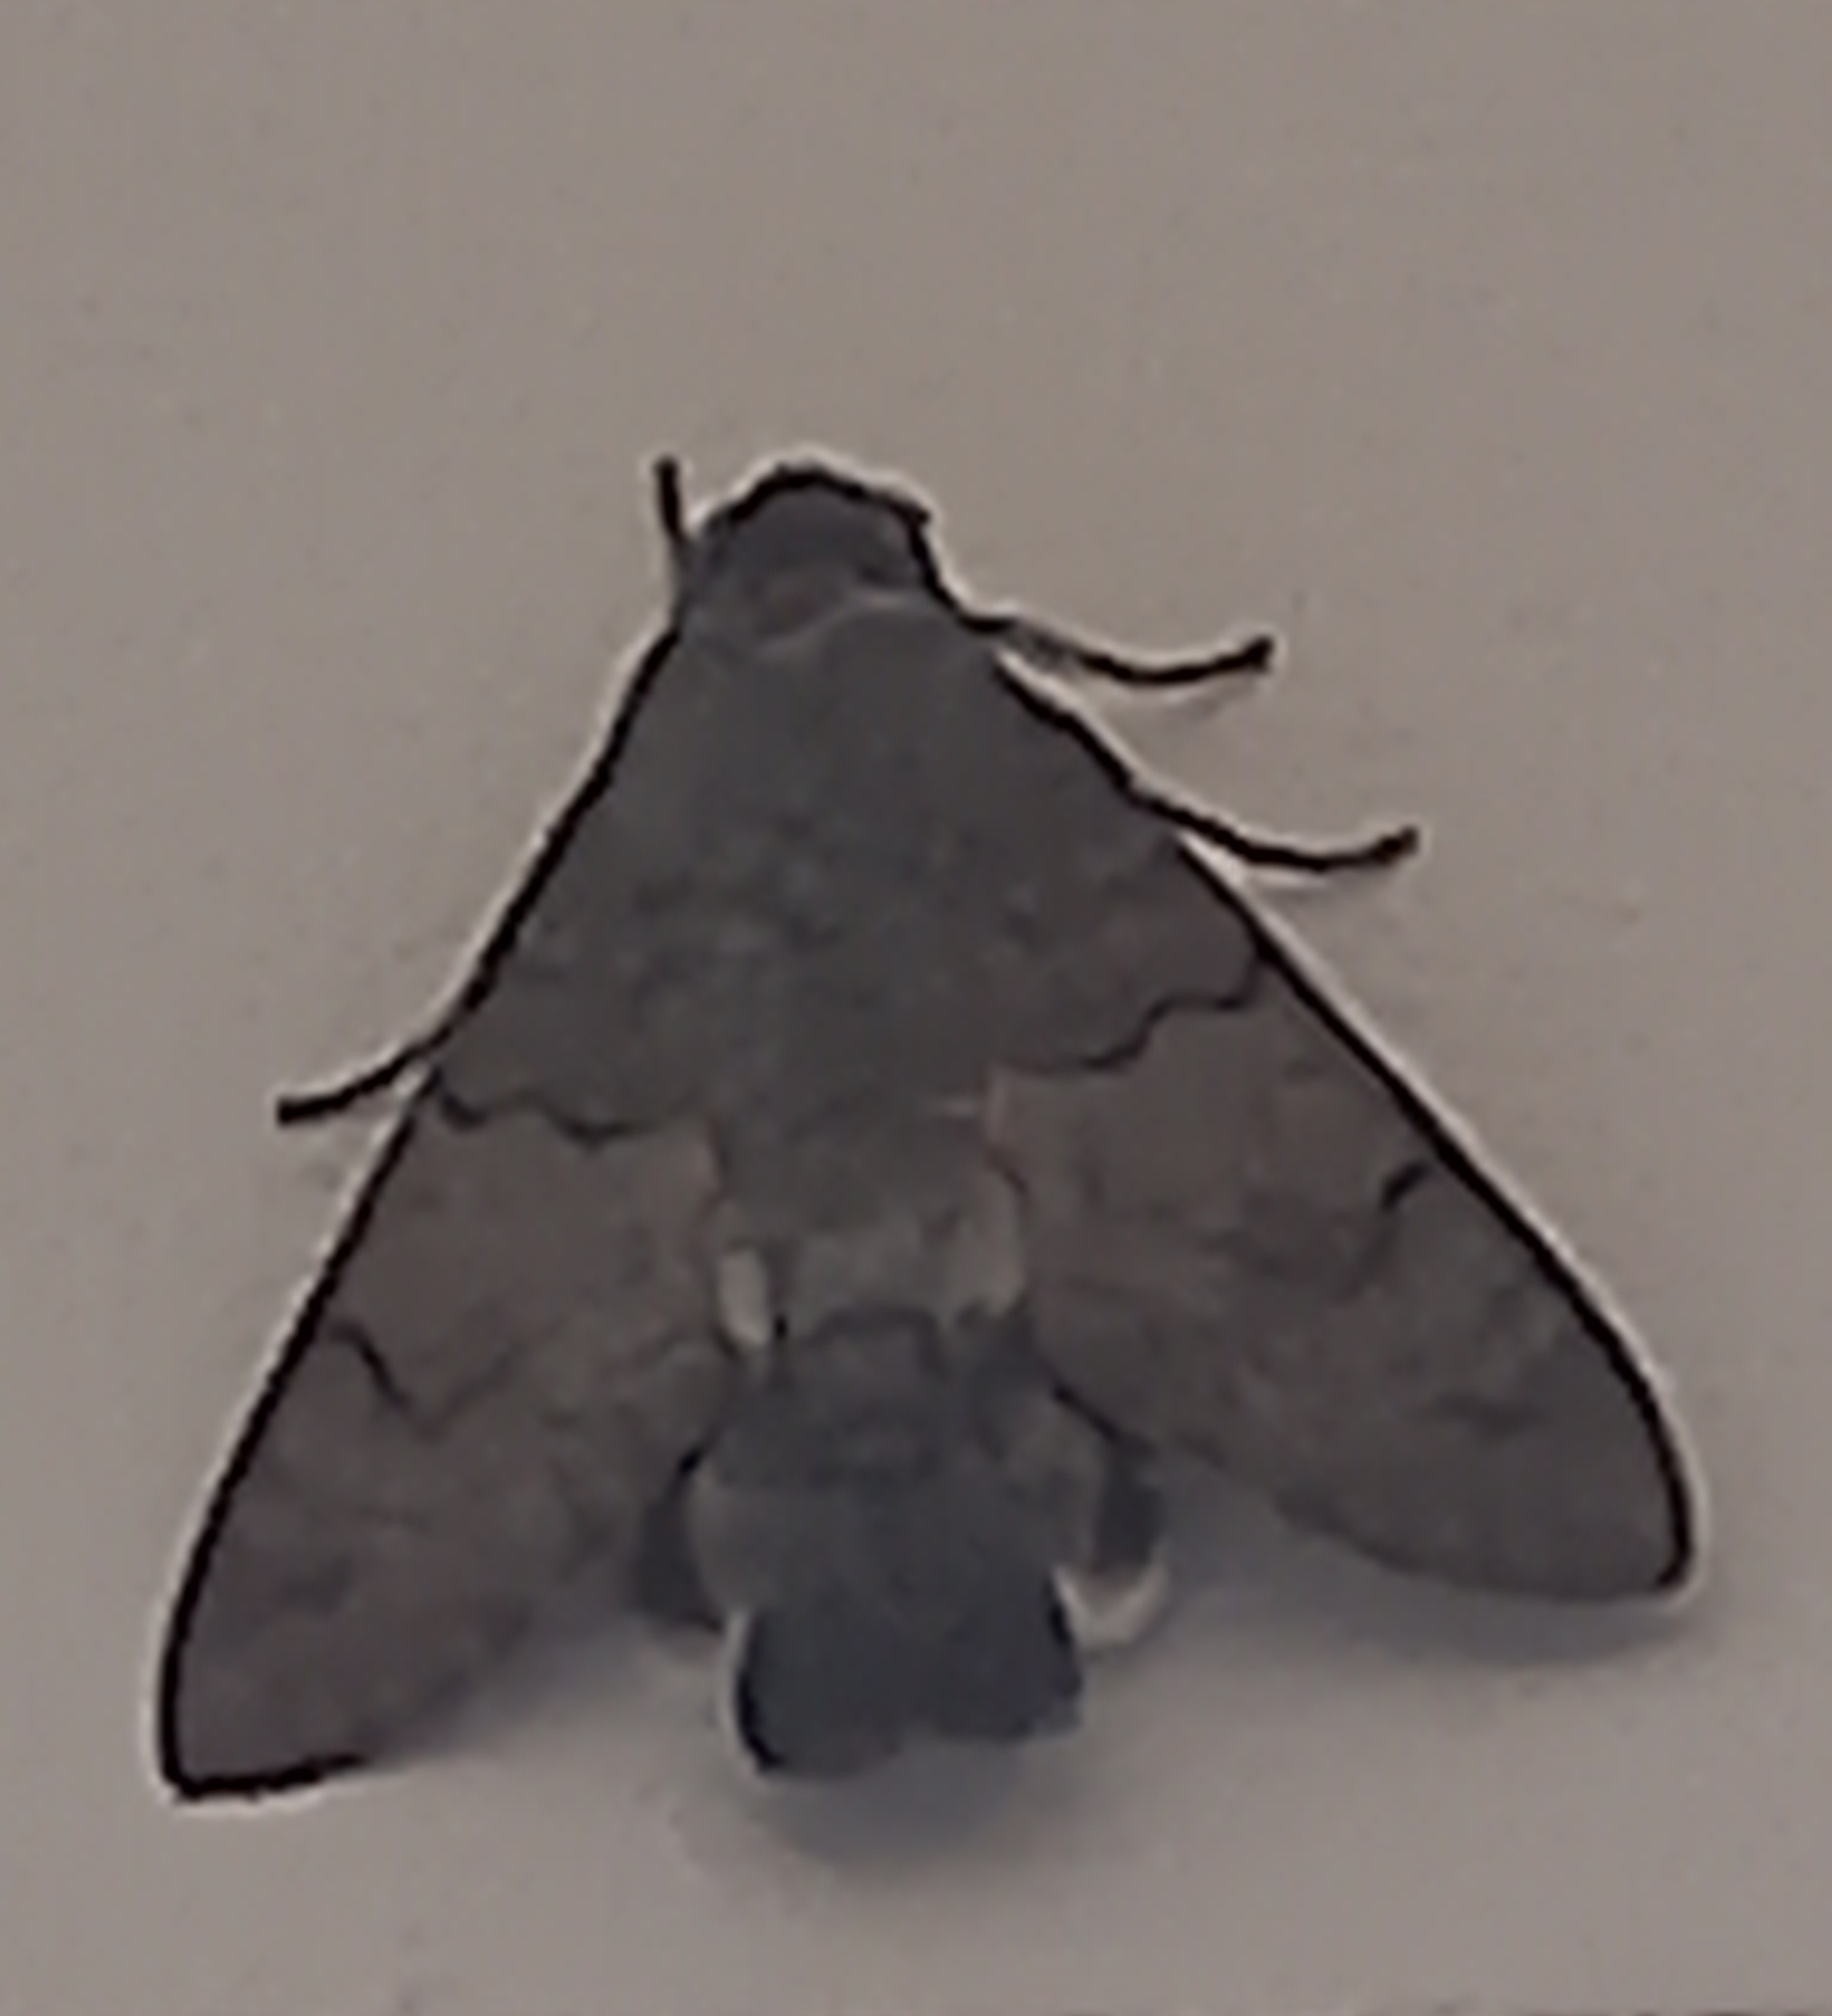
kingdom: Animalia
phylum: Arthropoda
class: Insecta
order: Lepidoptera
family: Sphingidae
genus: Macroglossum
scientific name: Macroglossum stellatarum
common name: Humming-bird hawk-moth
